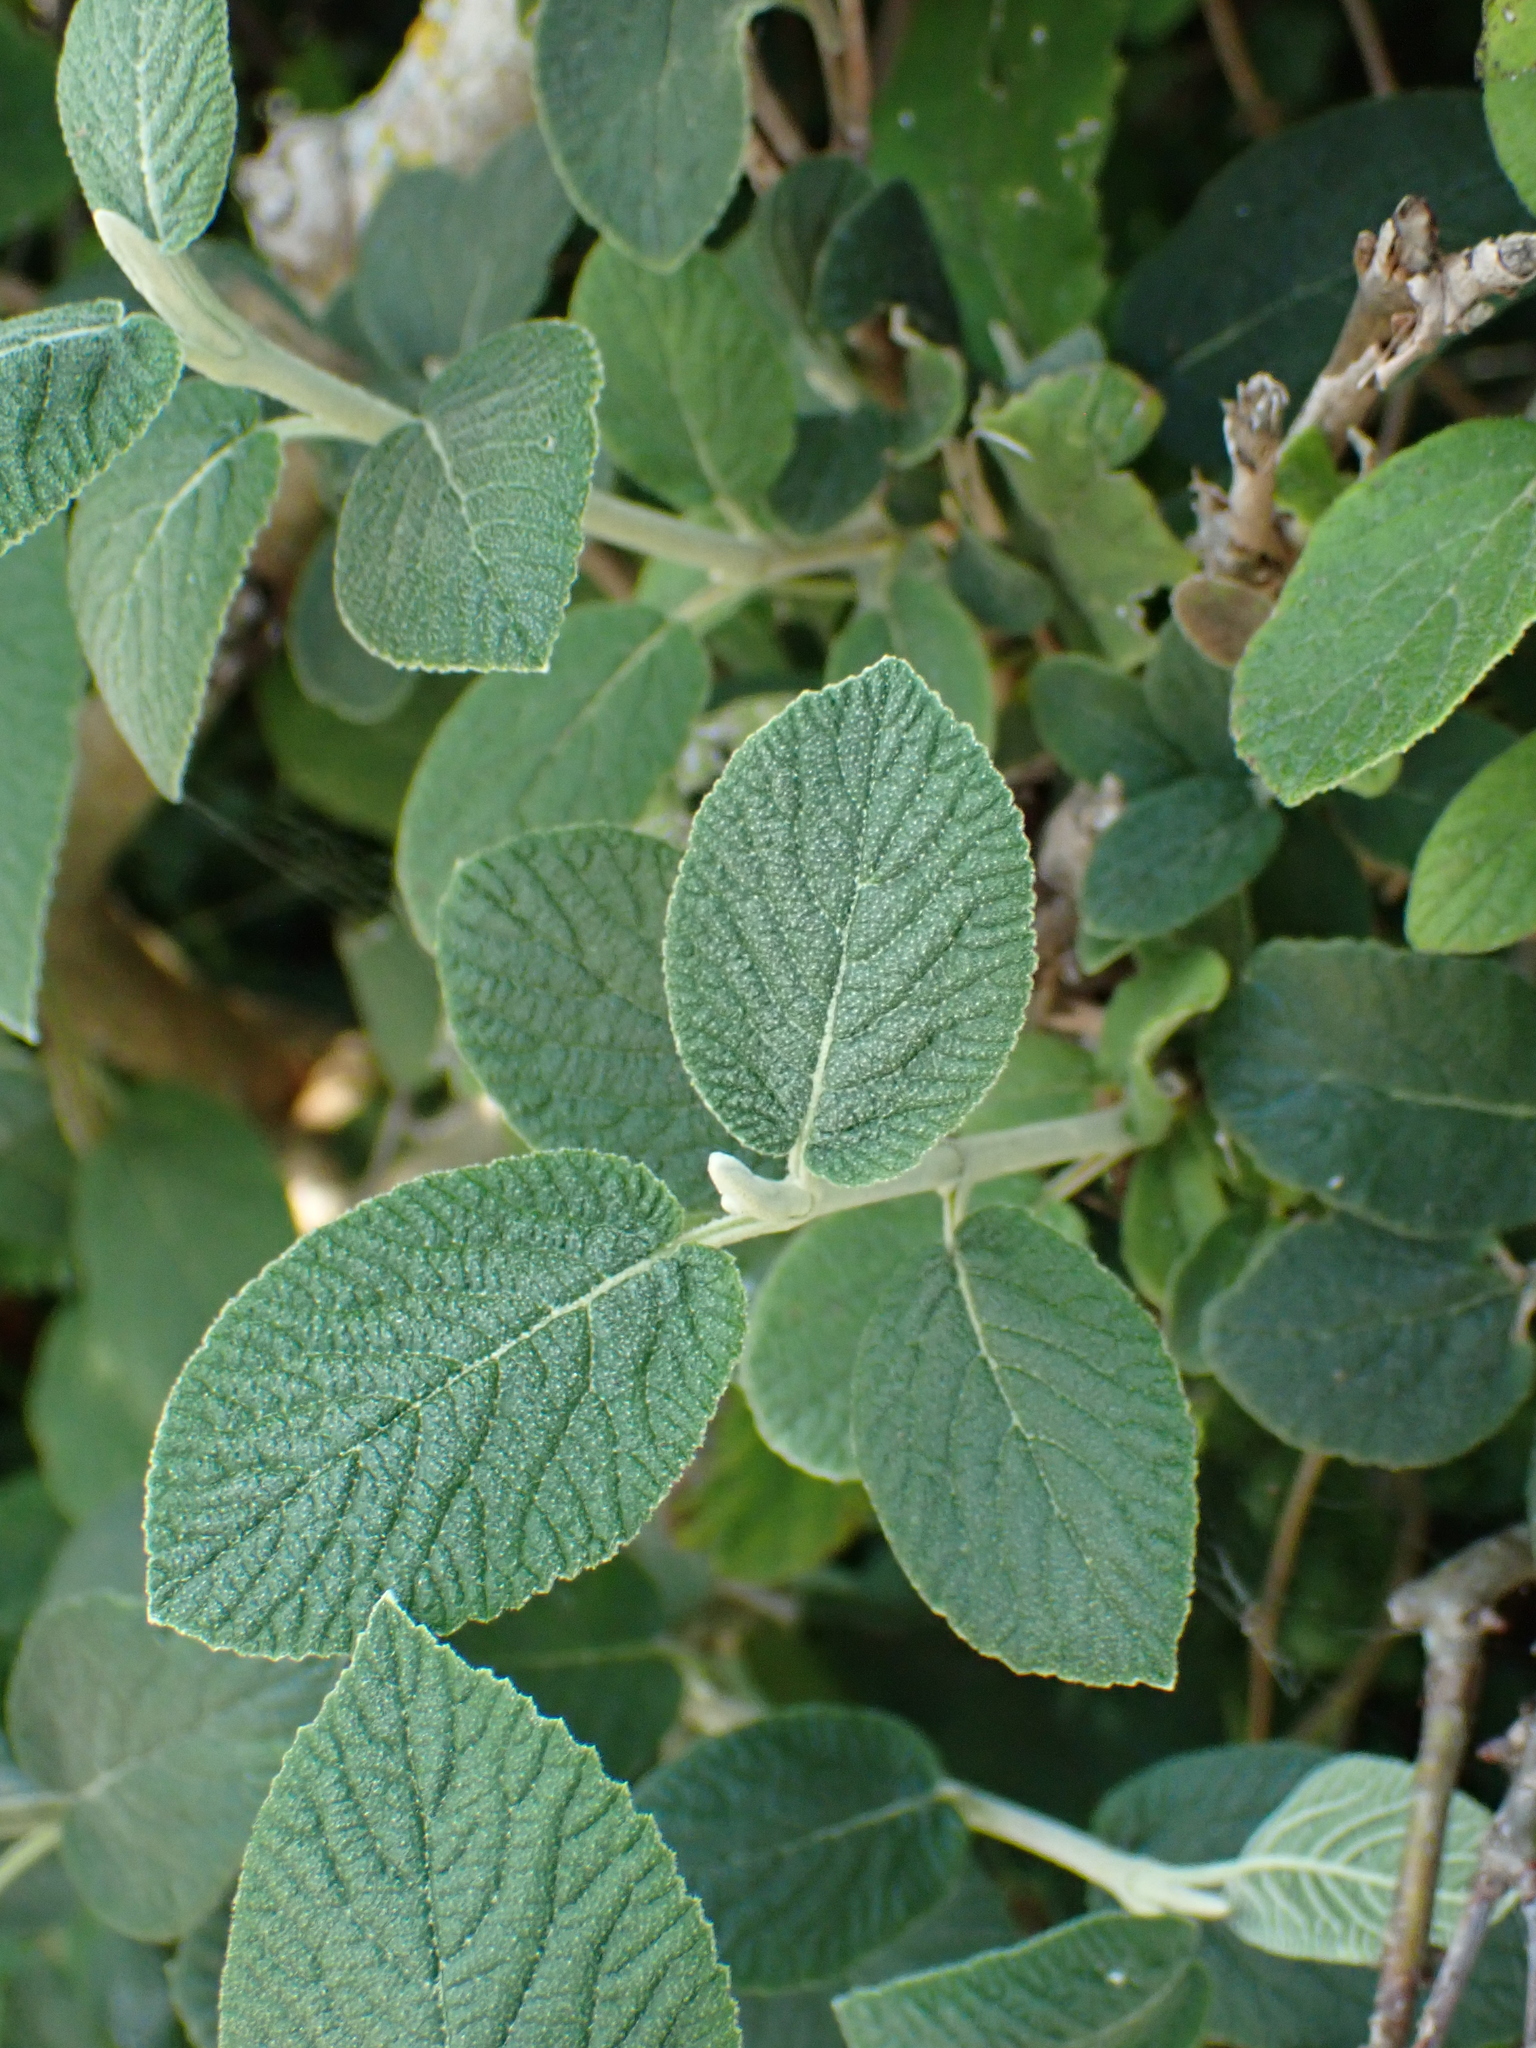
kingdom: Plantae
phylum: Tracheophyta
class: Magnoliopsida
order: Dipsacales
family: Viburnaceae
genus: Viburnum
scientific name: Viburnum lantana
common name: Wayfaring tree
